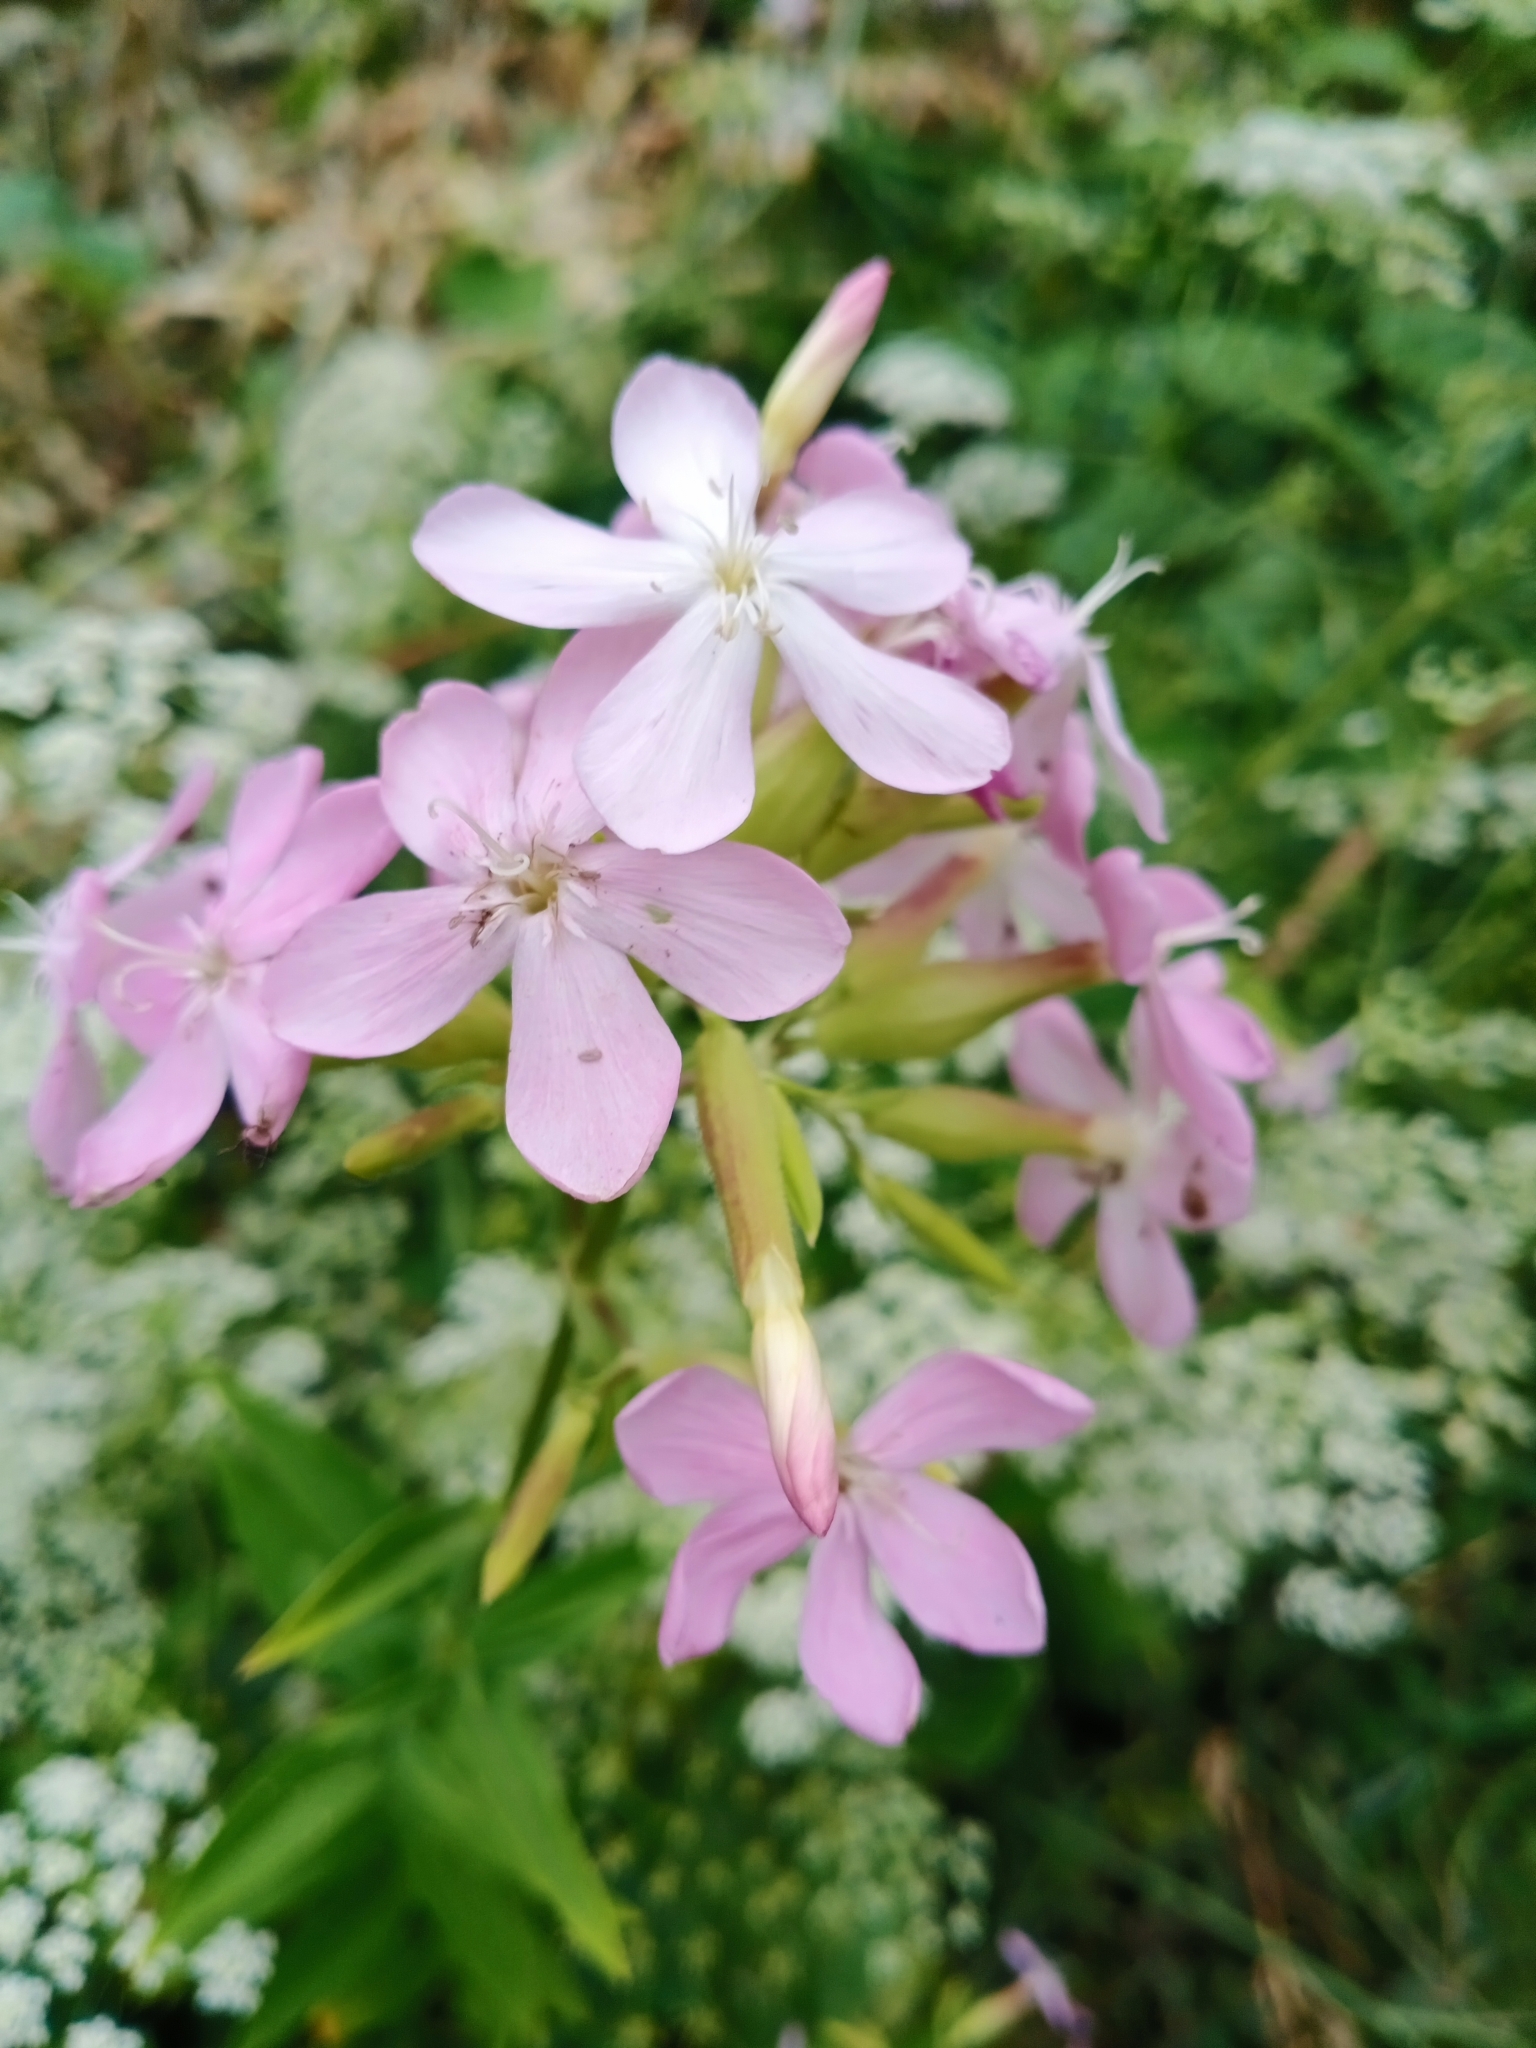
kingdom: Plantae
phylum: Tracheophyta
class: Magnoliopsida
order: Caryophyllales
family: Caryophyllaceae
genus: Saponaria
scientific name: Saponaria officinalis
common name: Soapwort
